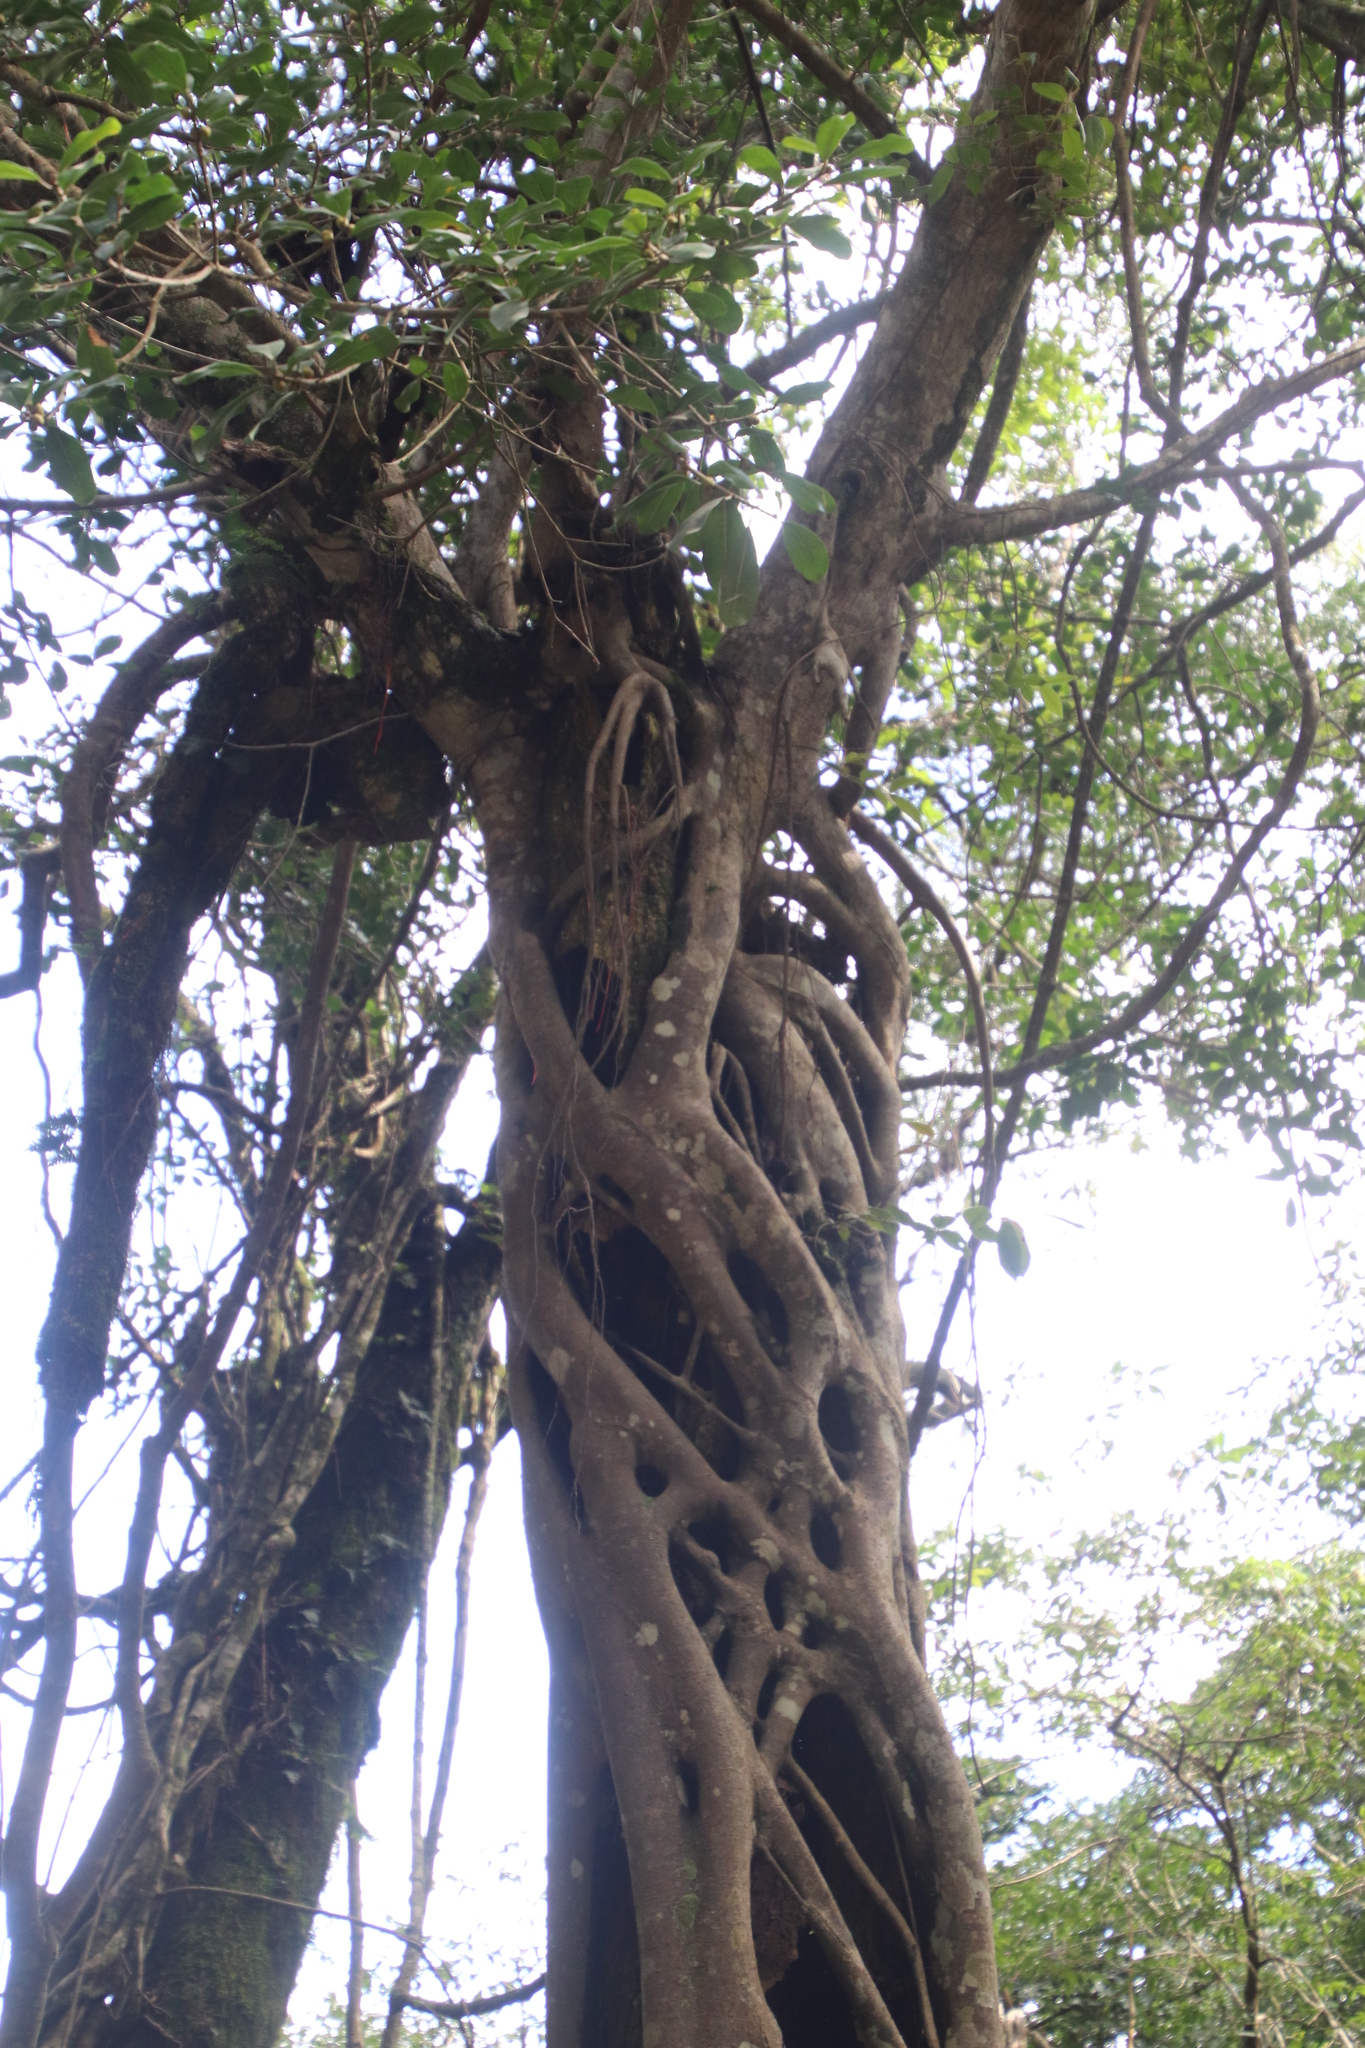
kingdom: Plantae
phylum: Tracheophyta
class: Magnoliopsida
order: Rosales
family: Moraceae
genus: Ficus
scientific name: Ficus craterostoma
